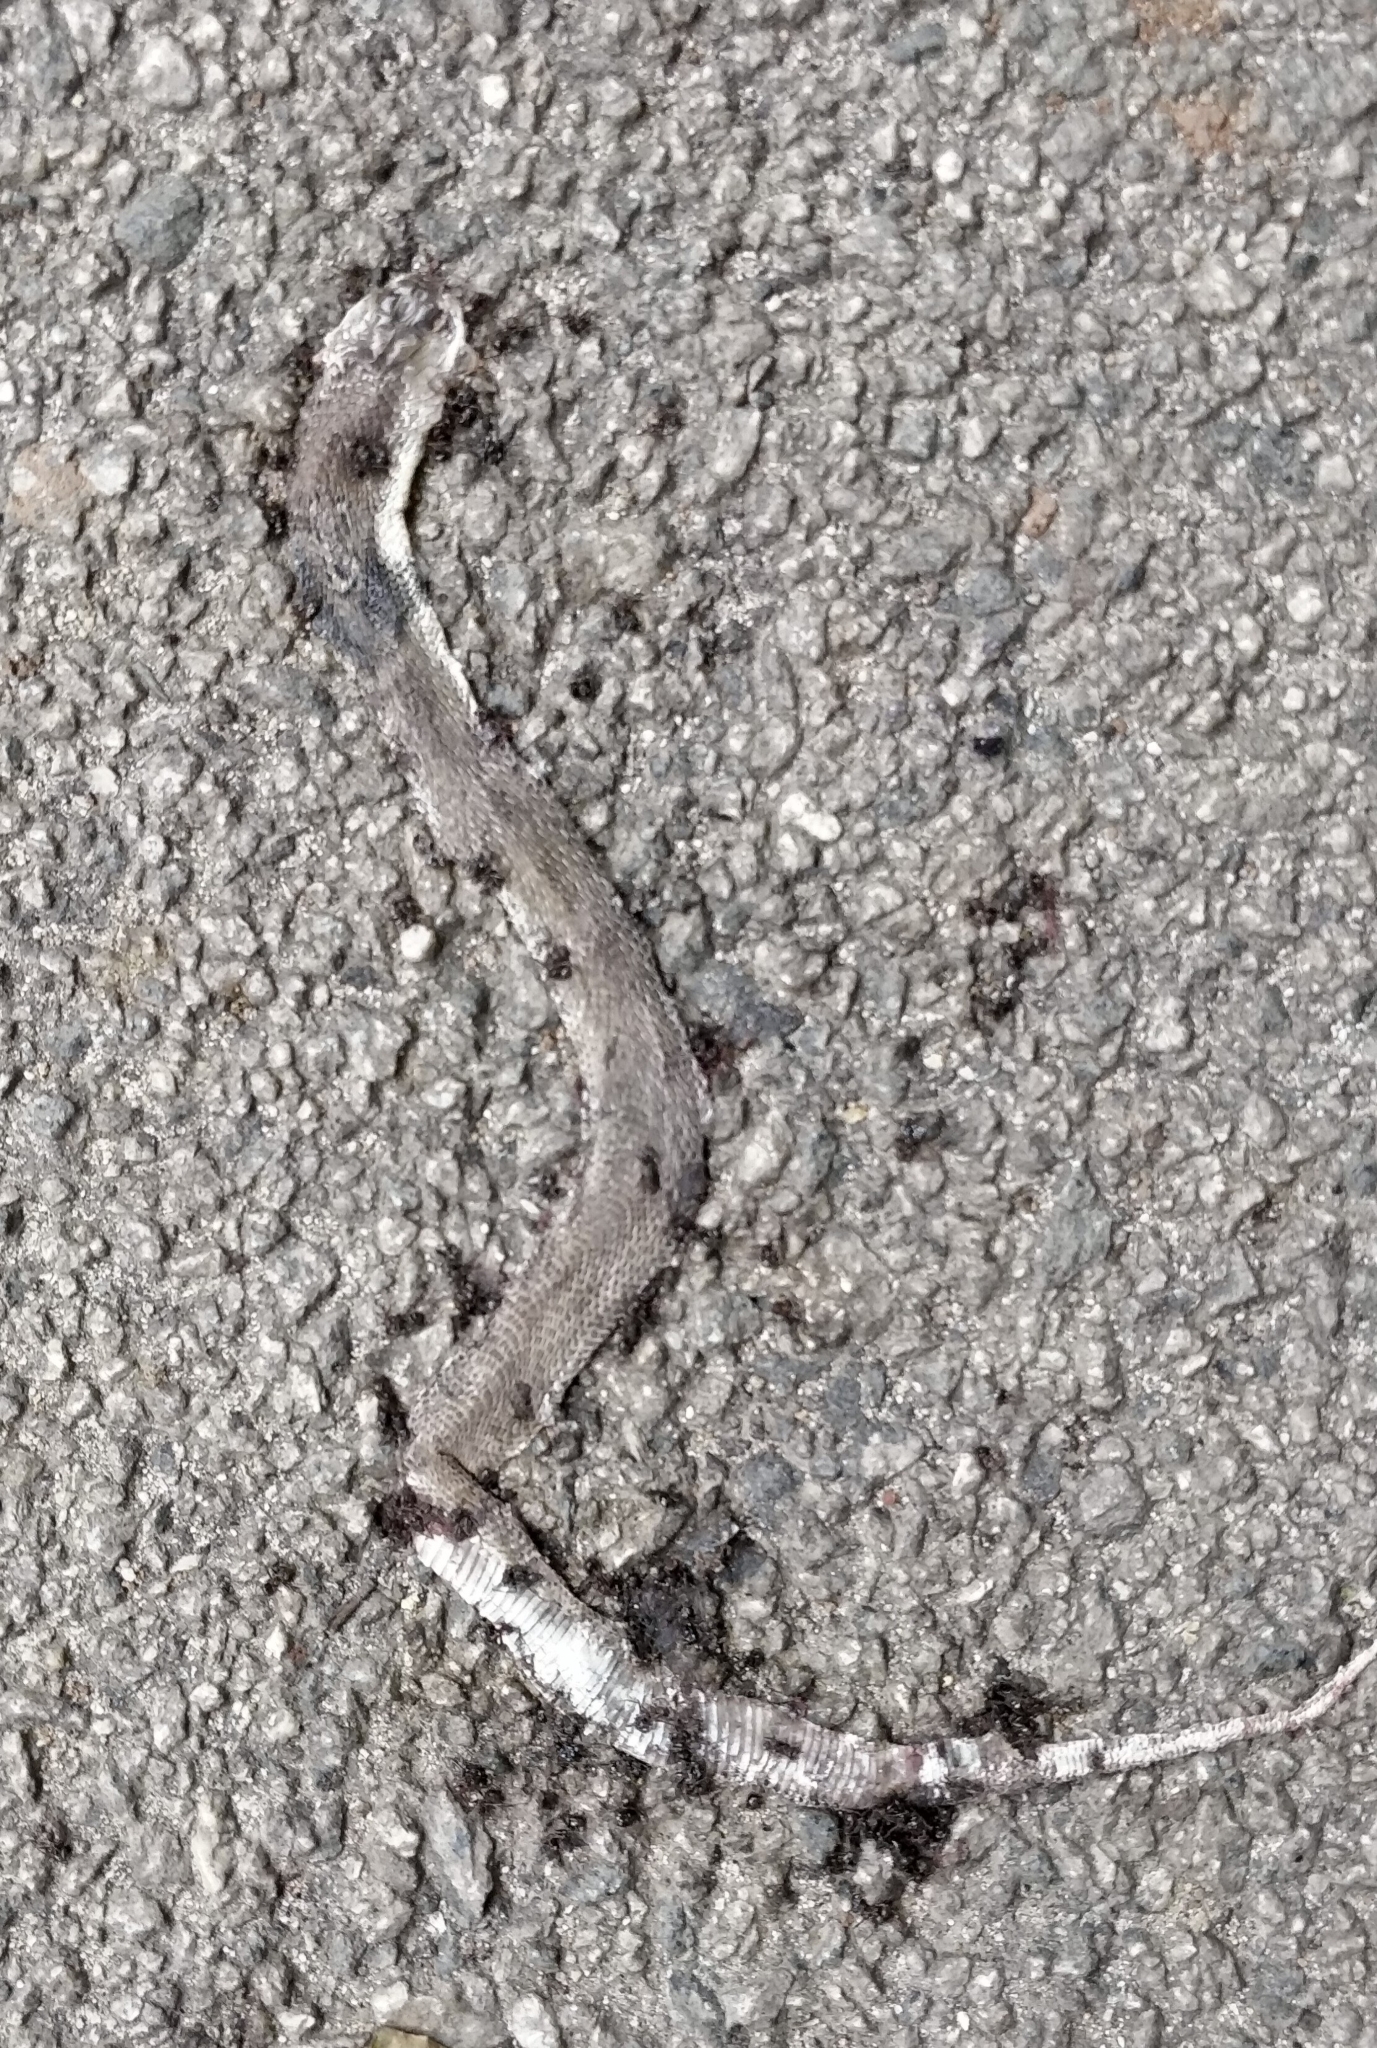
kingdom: Animalia
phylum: Chordata
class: Squamata
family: Elapidae
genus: Naja
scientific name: Naja naja
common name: Indian cobra
